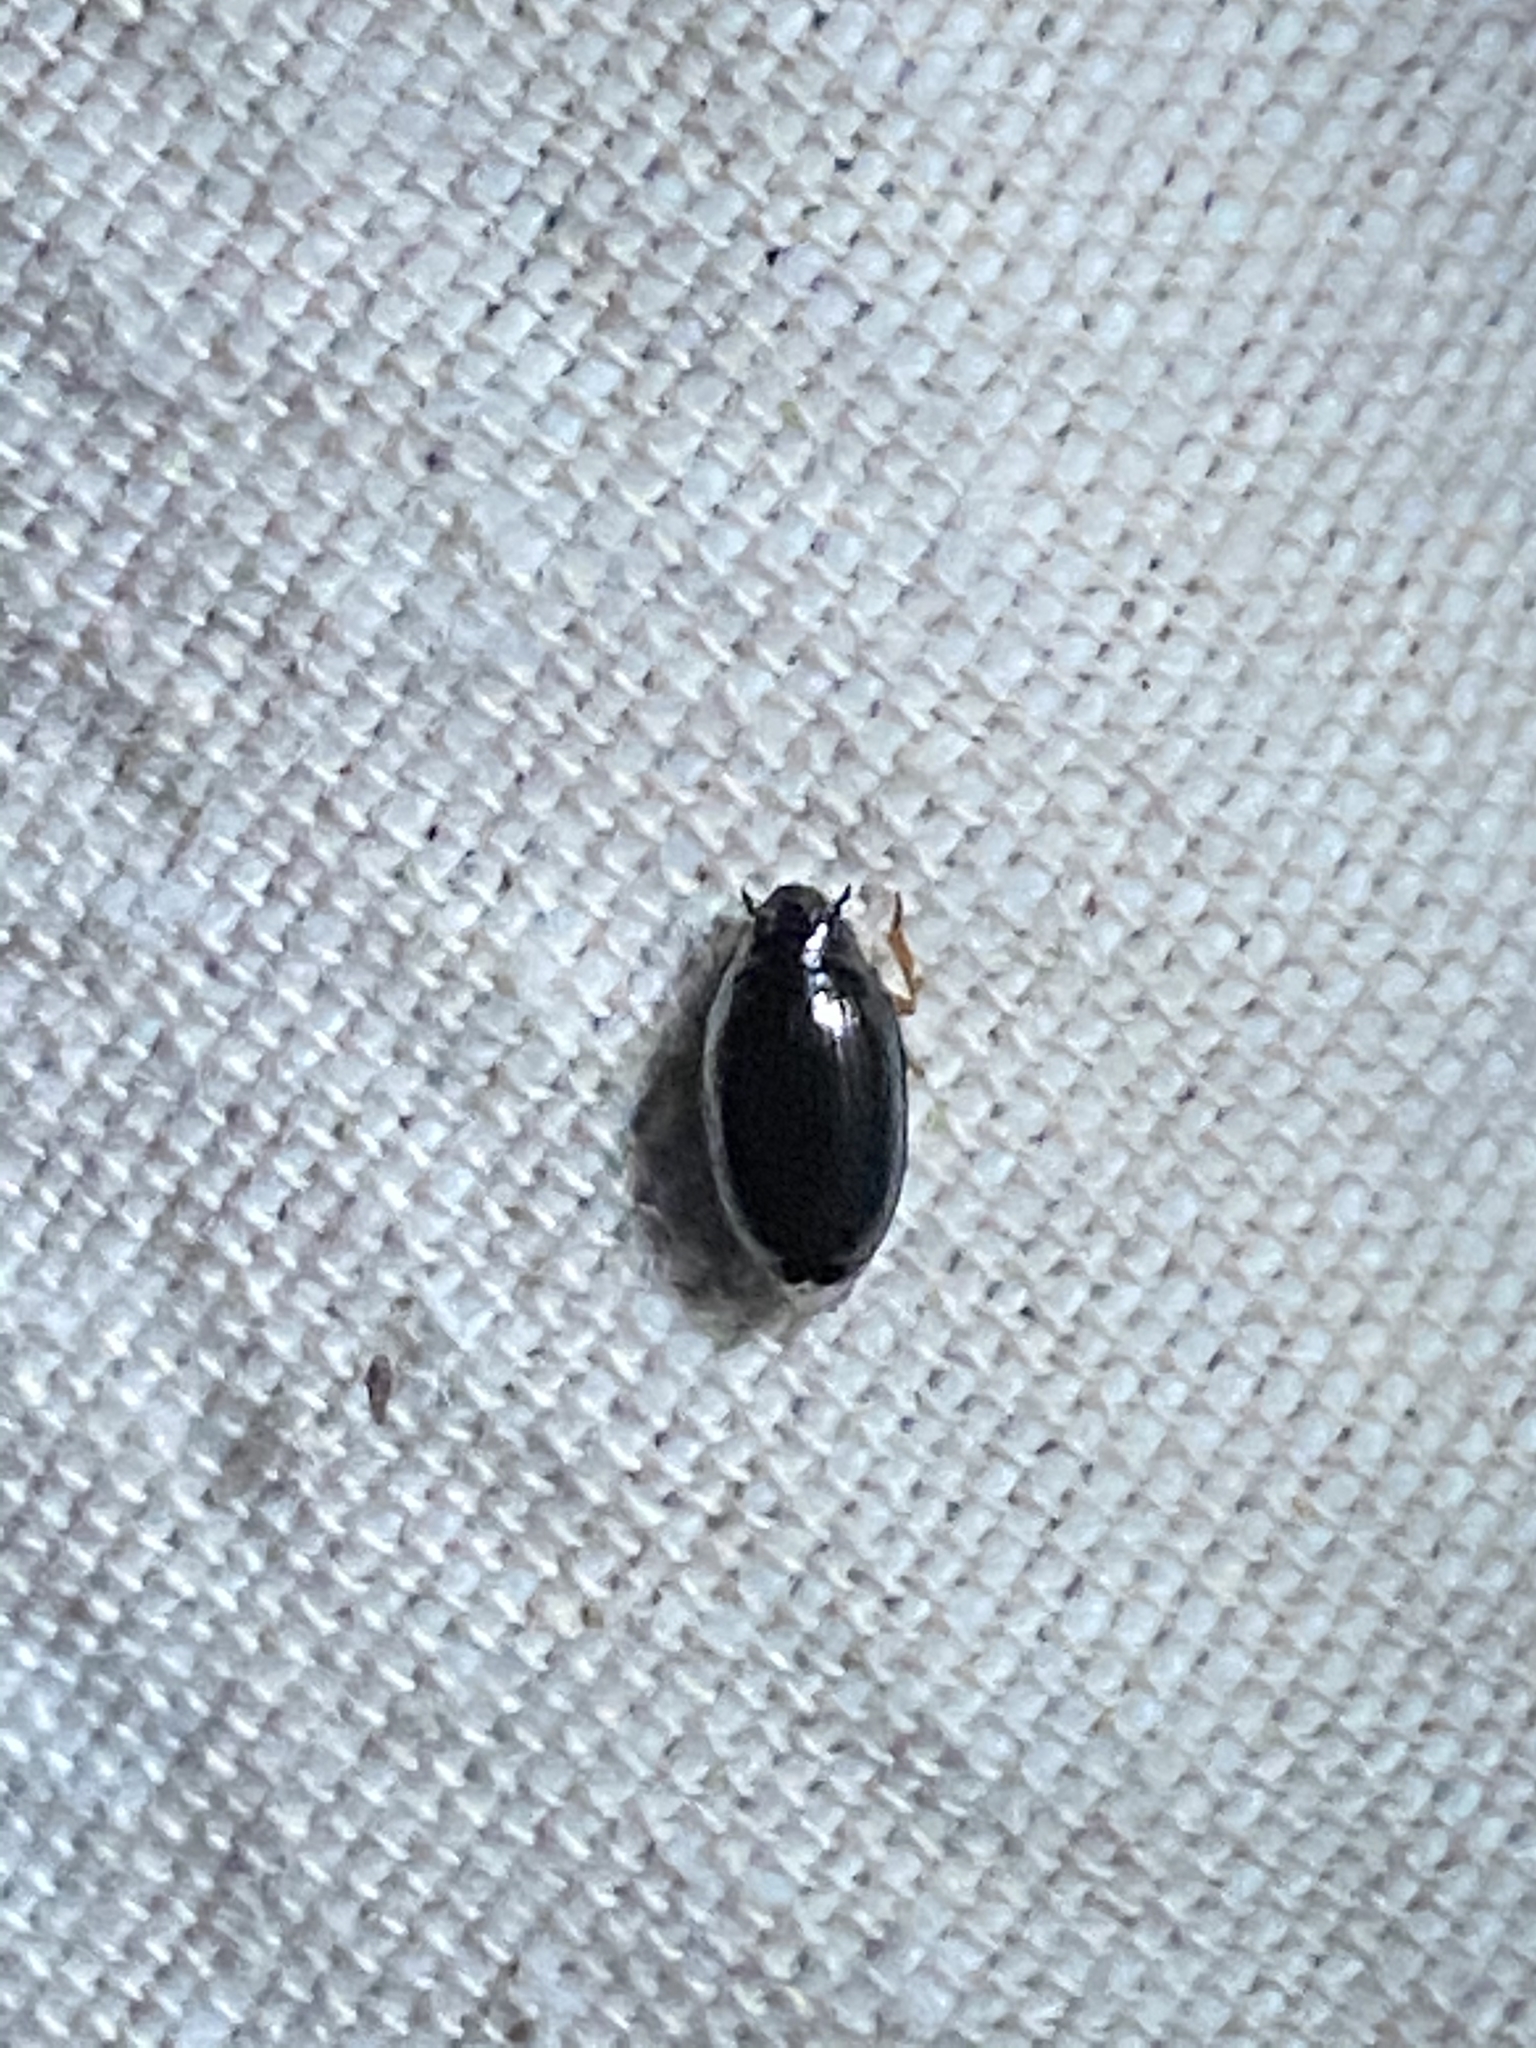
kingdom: Animalia
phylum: Arthropoda
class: Insecta
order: Coleoptera
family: Gyrinidae
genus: Gyrinus
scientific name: Gyrinus
